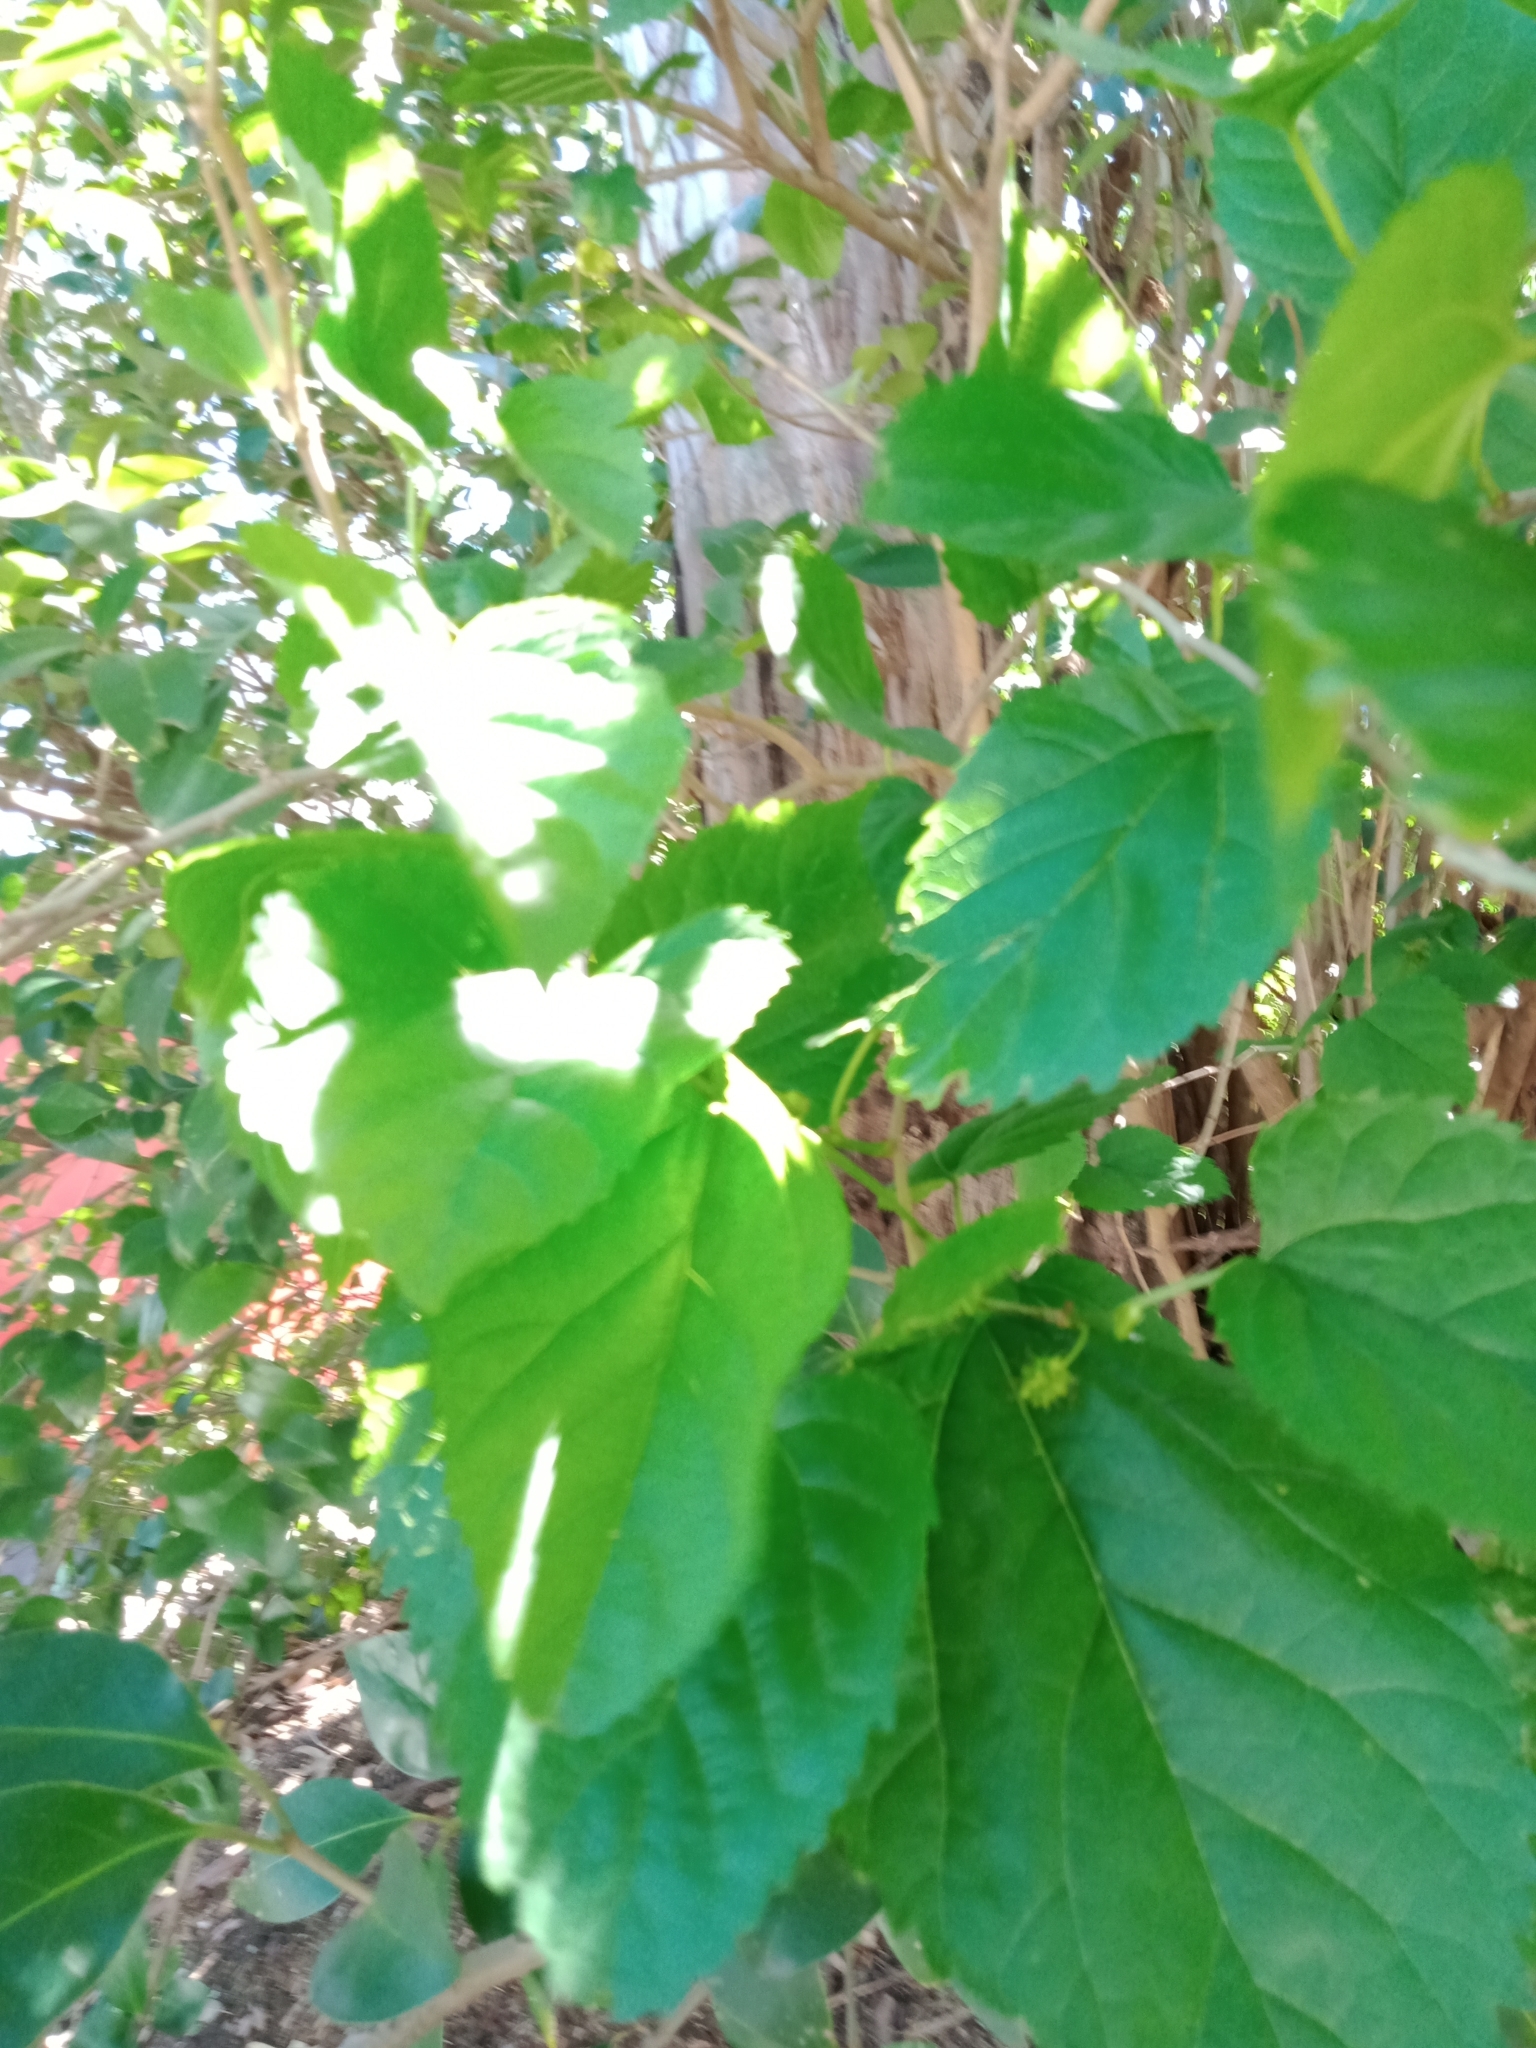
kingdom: Plantae
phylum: Tracheophyta
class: Magnoliopsida
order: Rosales
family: Moraceae
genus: Morus
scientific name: Morus alba
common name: White mulberry
